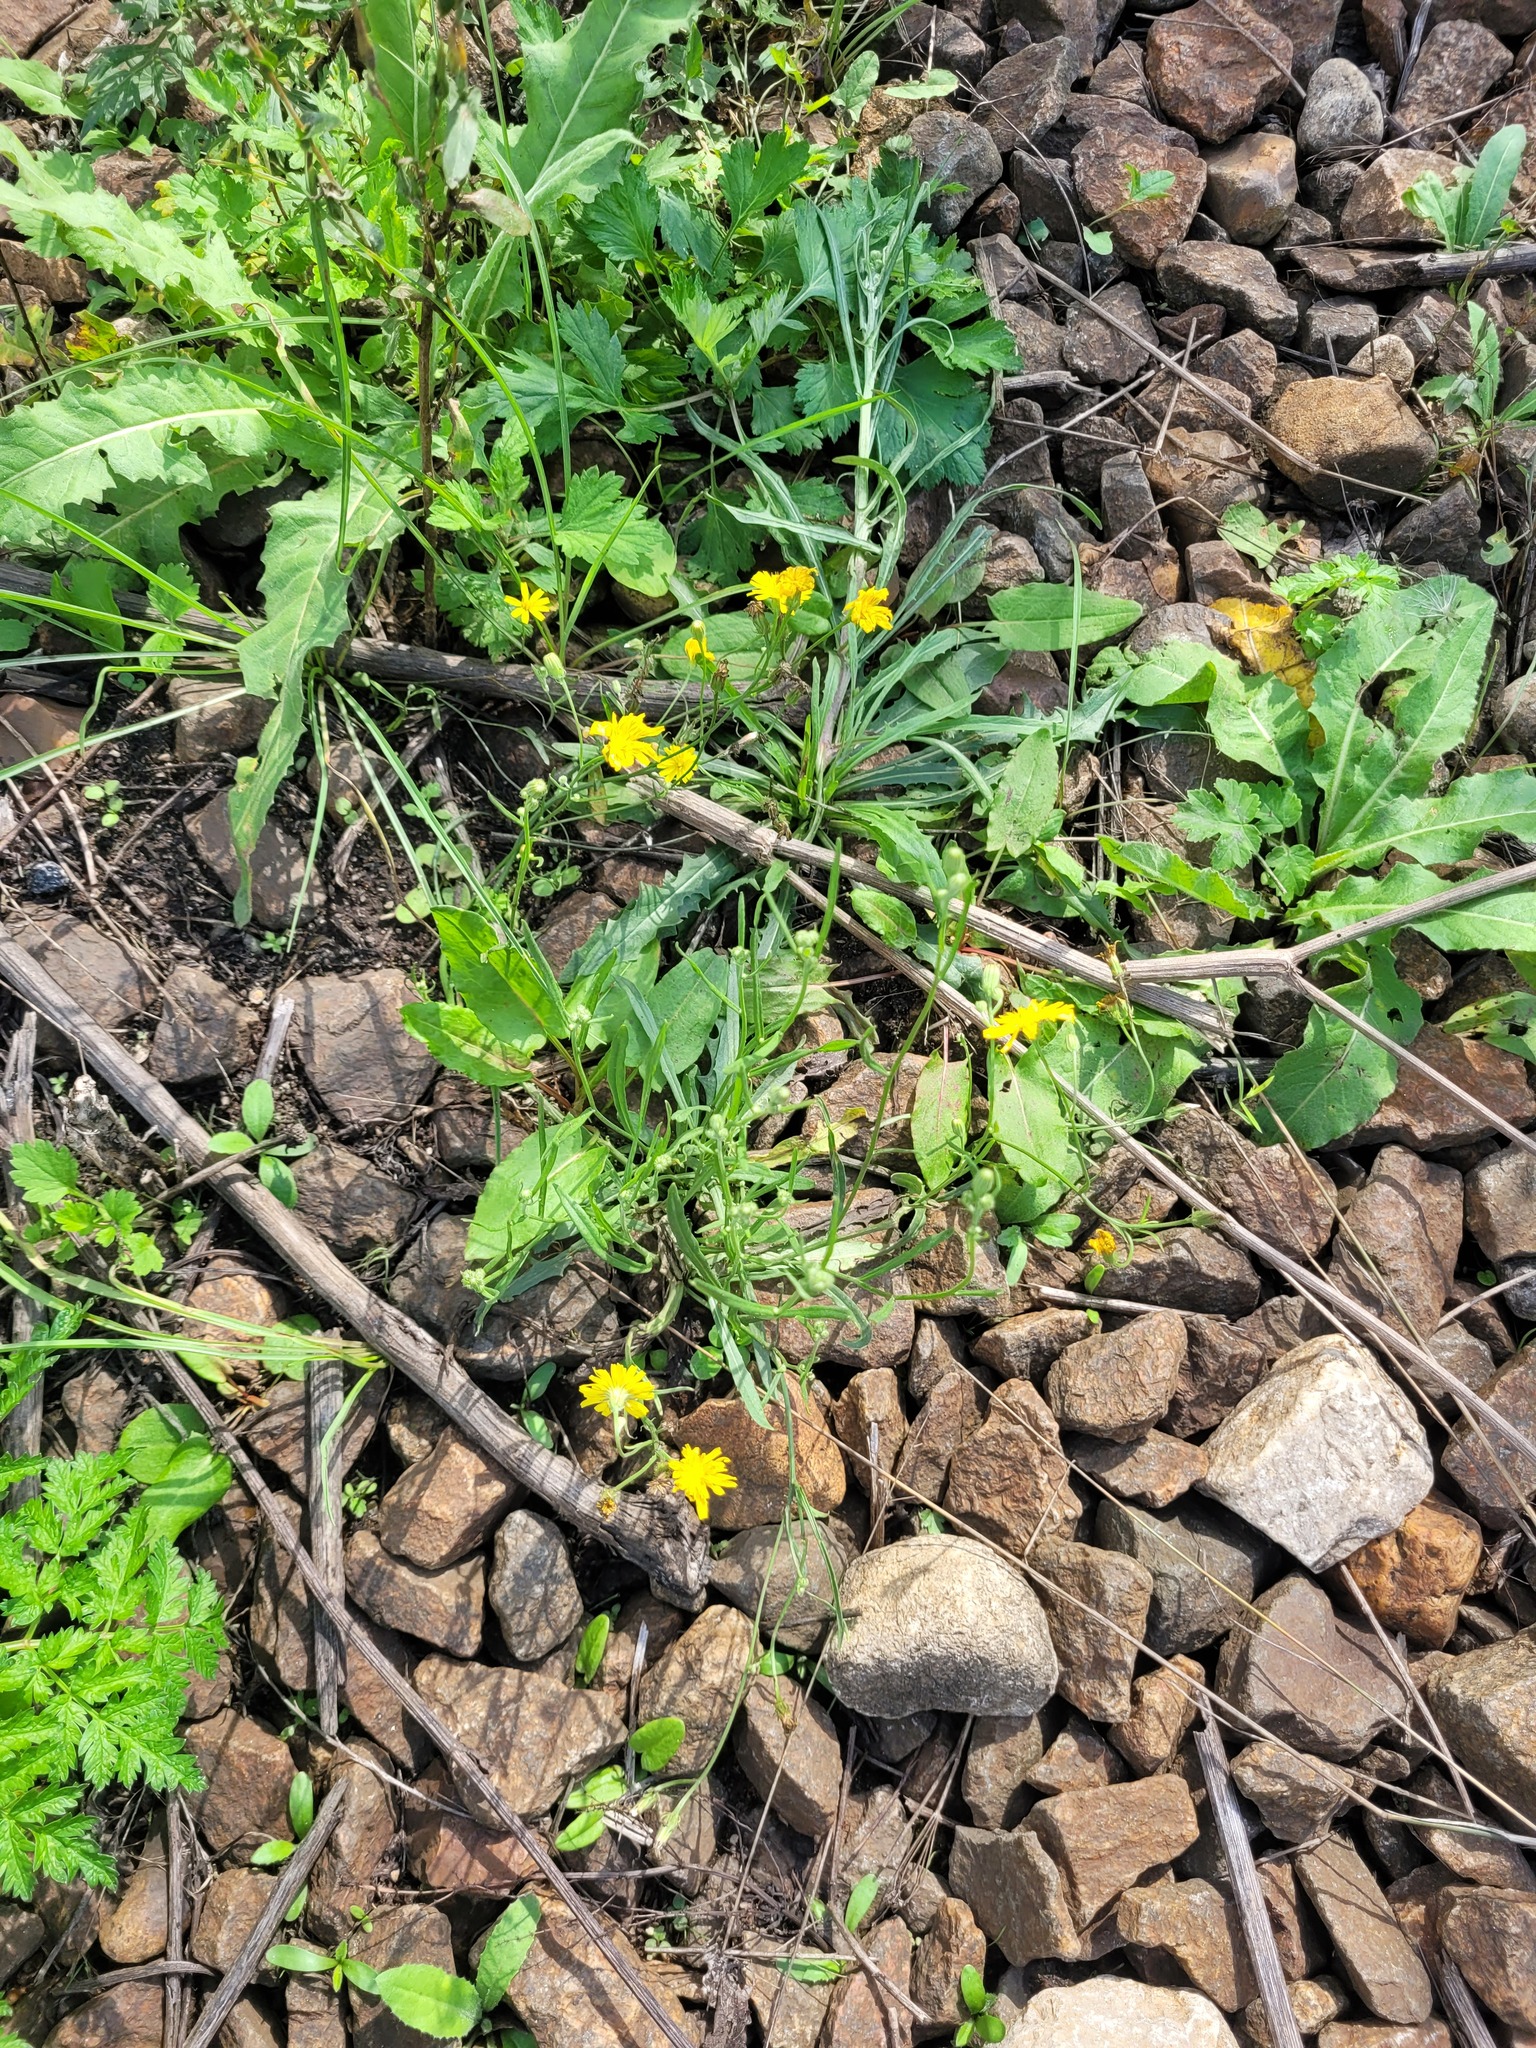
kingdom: Plantae
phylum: Tracheophyta
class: Magnoliopsida
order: Asterales
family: Asteraceae
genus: Crepis
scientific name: Crepis tectorum
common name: Narrow-leaved hawk's-beard
